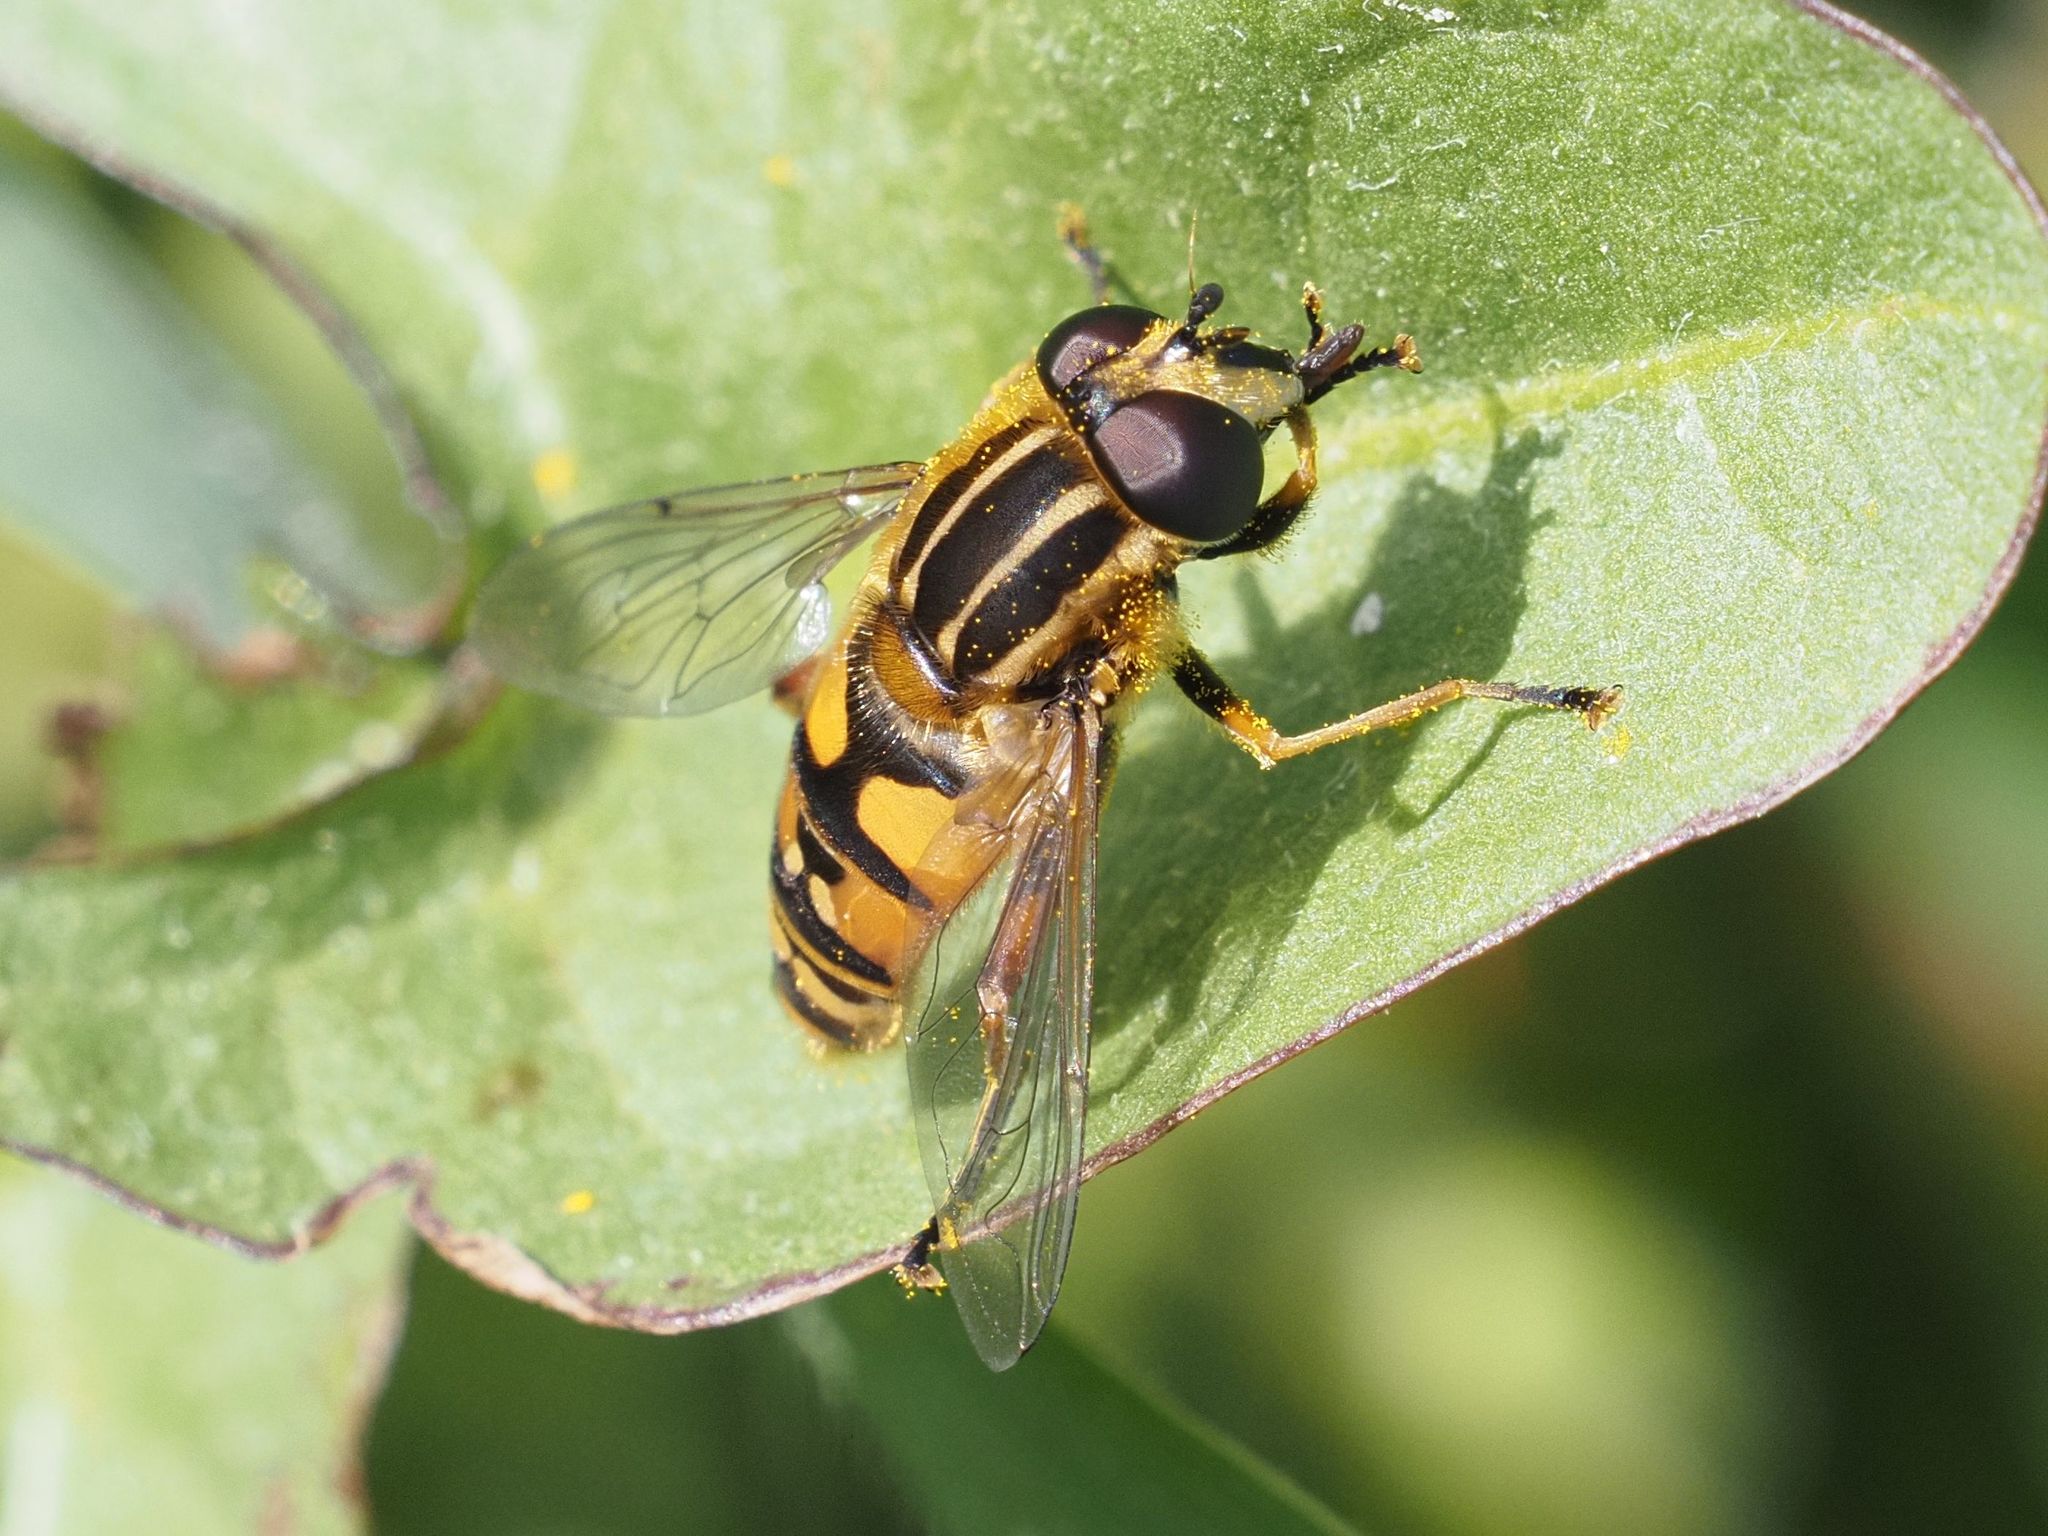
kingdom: Animalia
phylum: Arthropoda
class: Insecta
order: Diptera
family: Syrphidae
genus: Helophilus
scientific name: Helophilus pendulus
